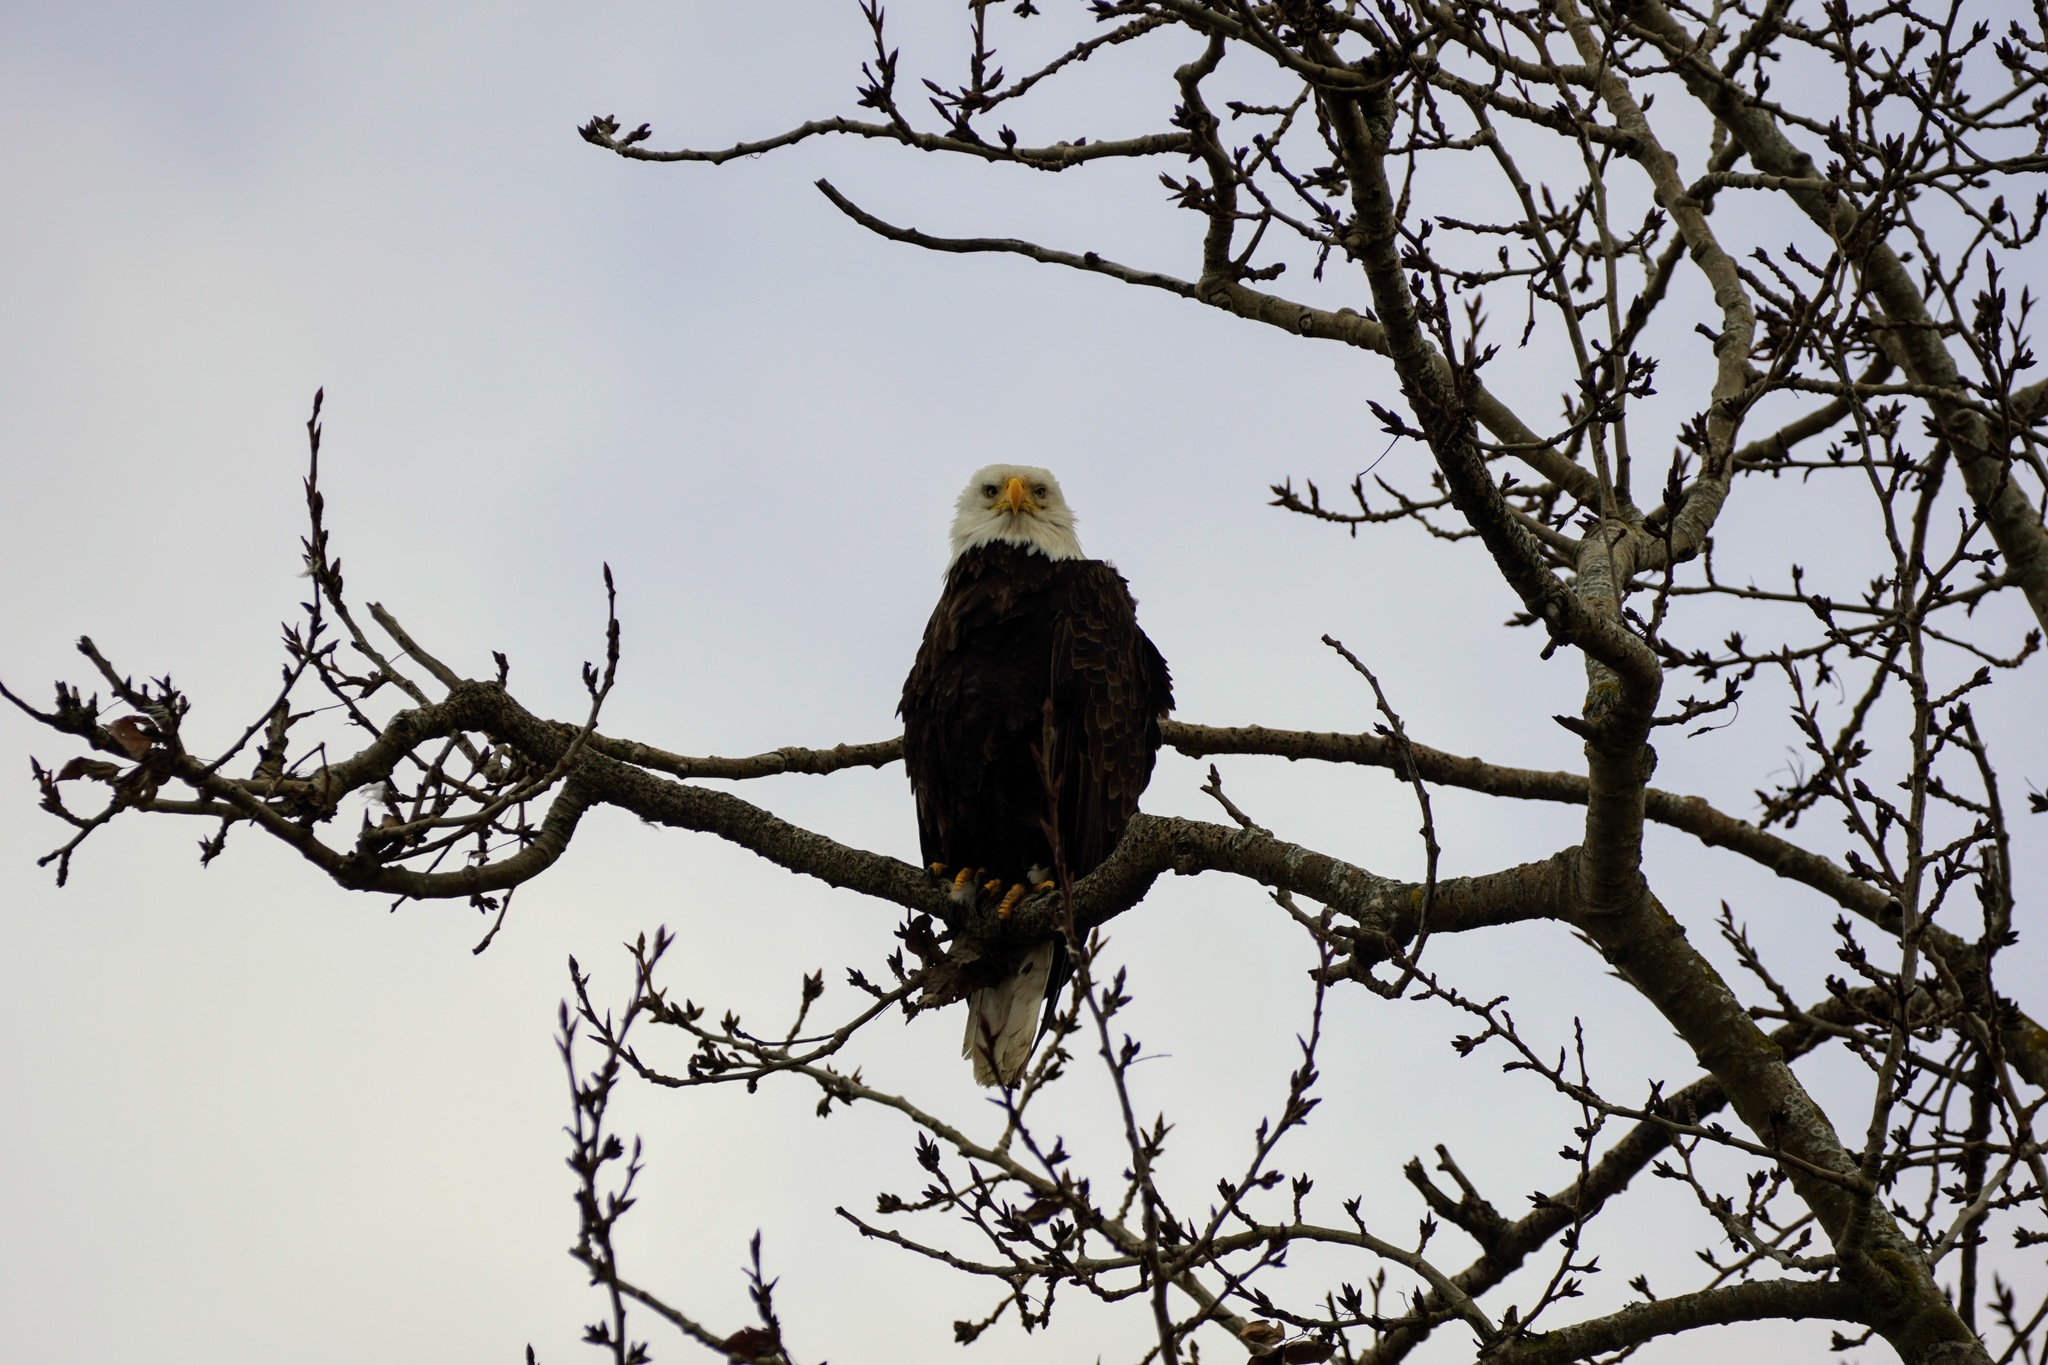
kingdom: Animalia
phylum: Chordata
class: Aves
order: Accipitriformes
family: Accipitridae
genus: Haliaeetus
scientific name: Haliaeetus leucocephalus
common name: Bald eagle
